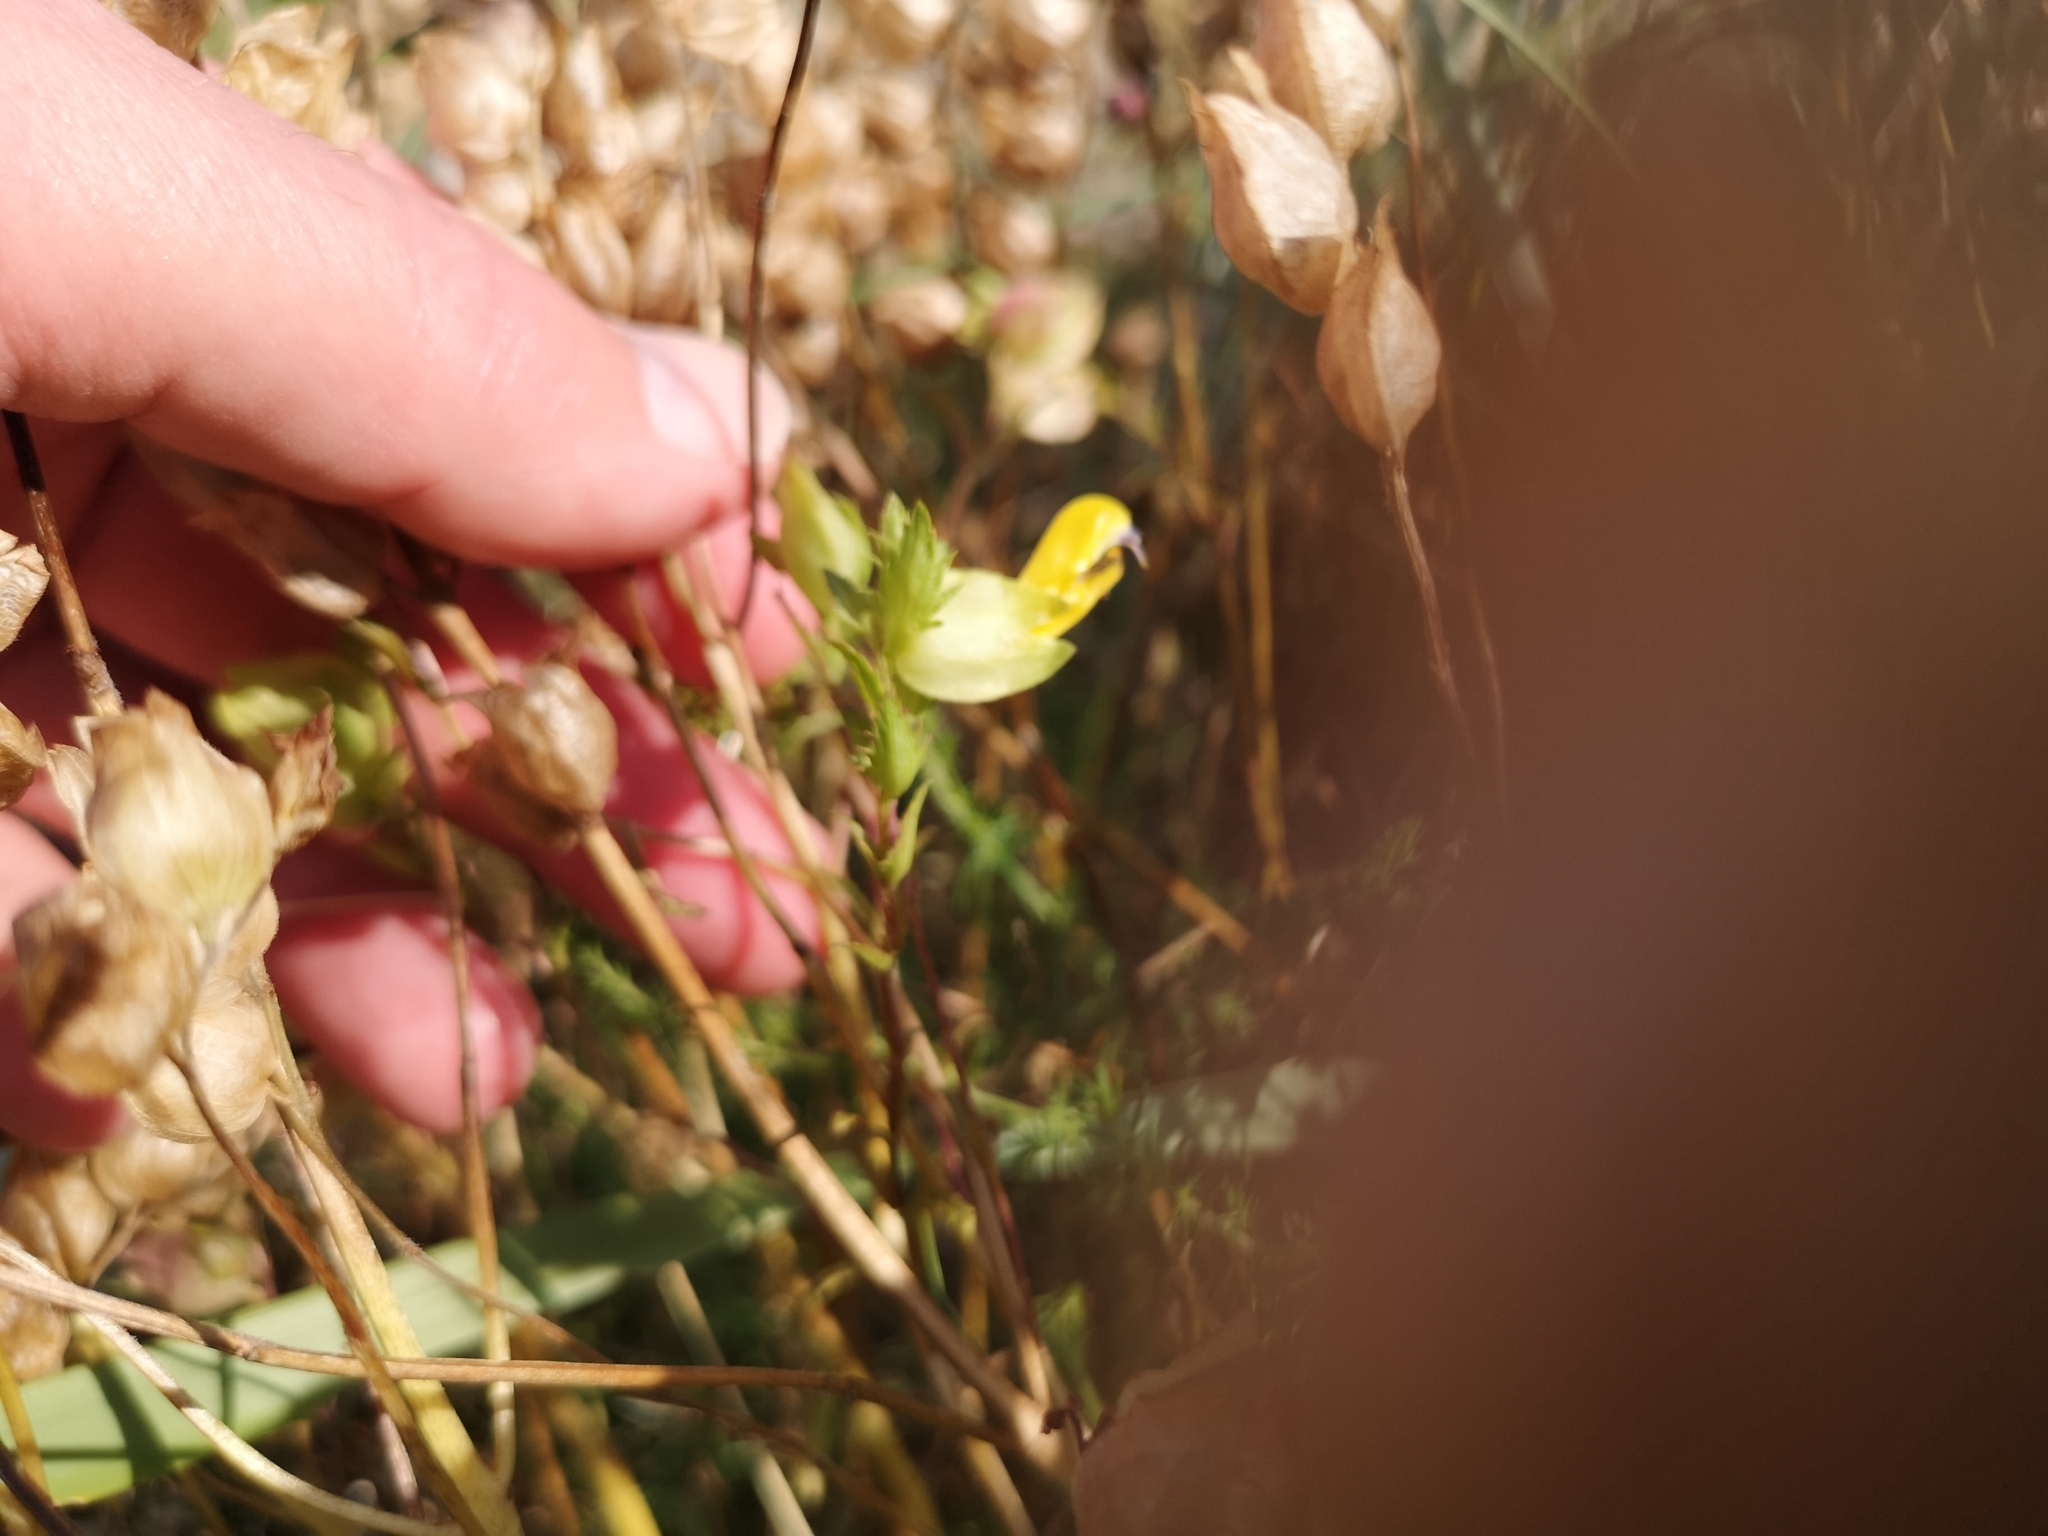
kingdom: Plantae
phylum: Tracheophyta
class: Magnoliopsida
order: Lamiales
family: Orobanchaceae
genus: Rhinanthus
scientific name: Rhinanthus serotinus
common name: Late-flowering yellow rattle
